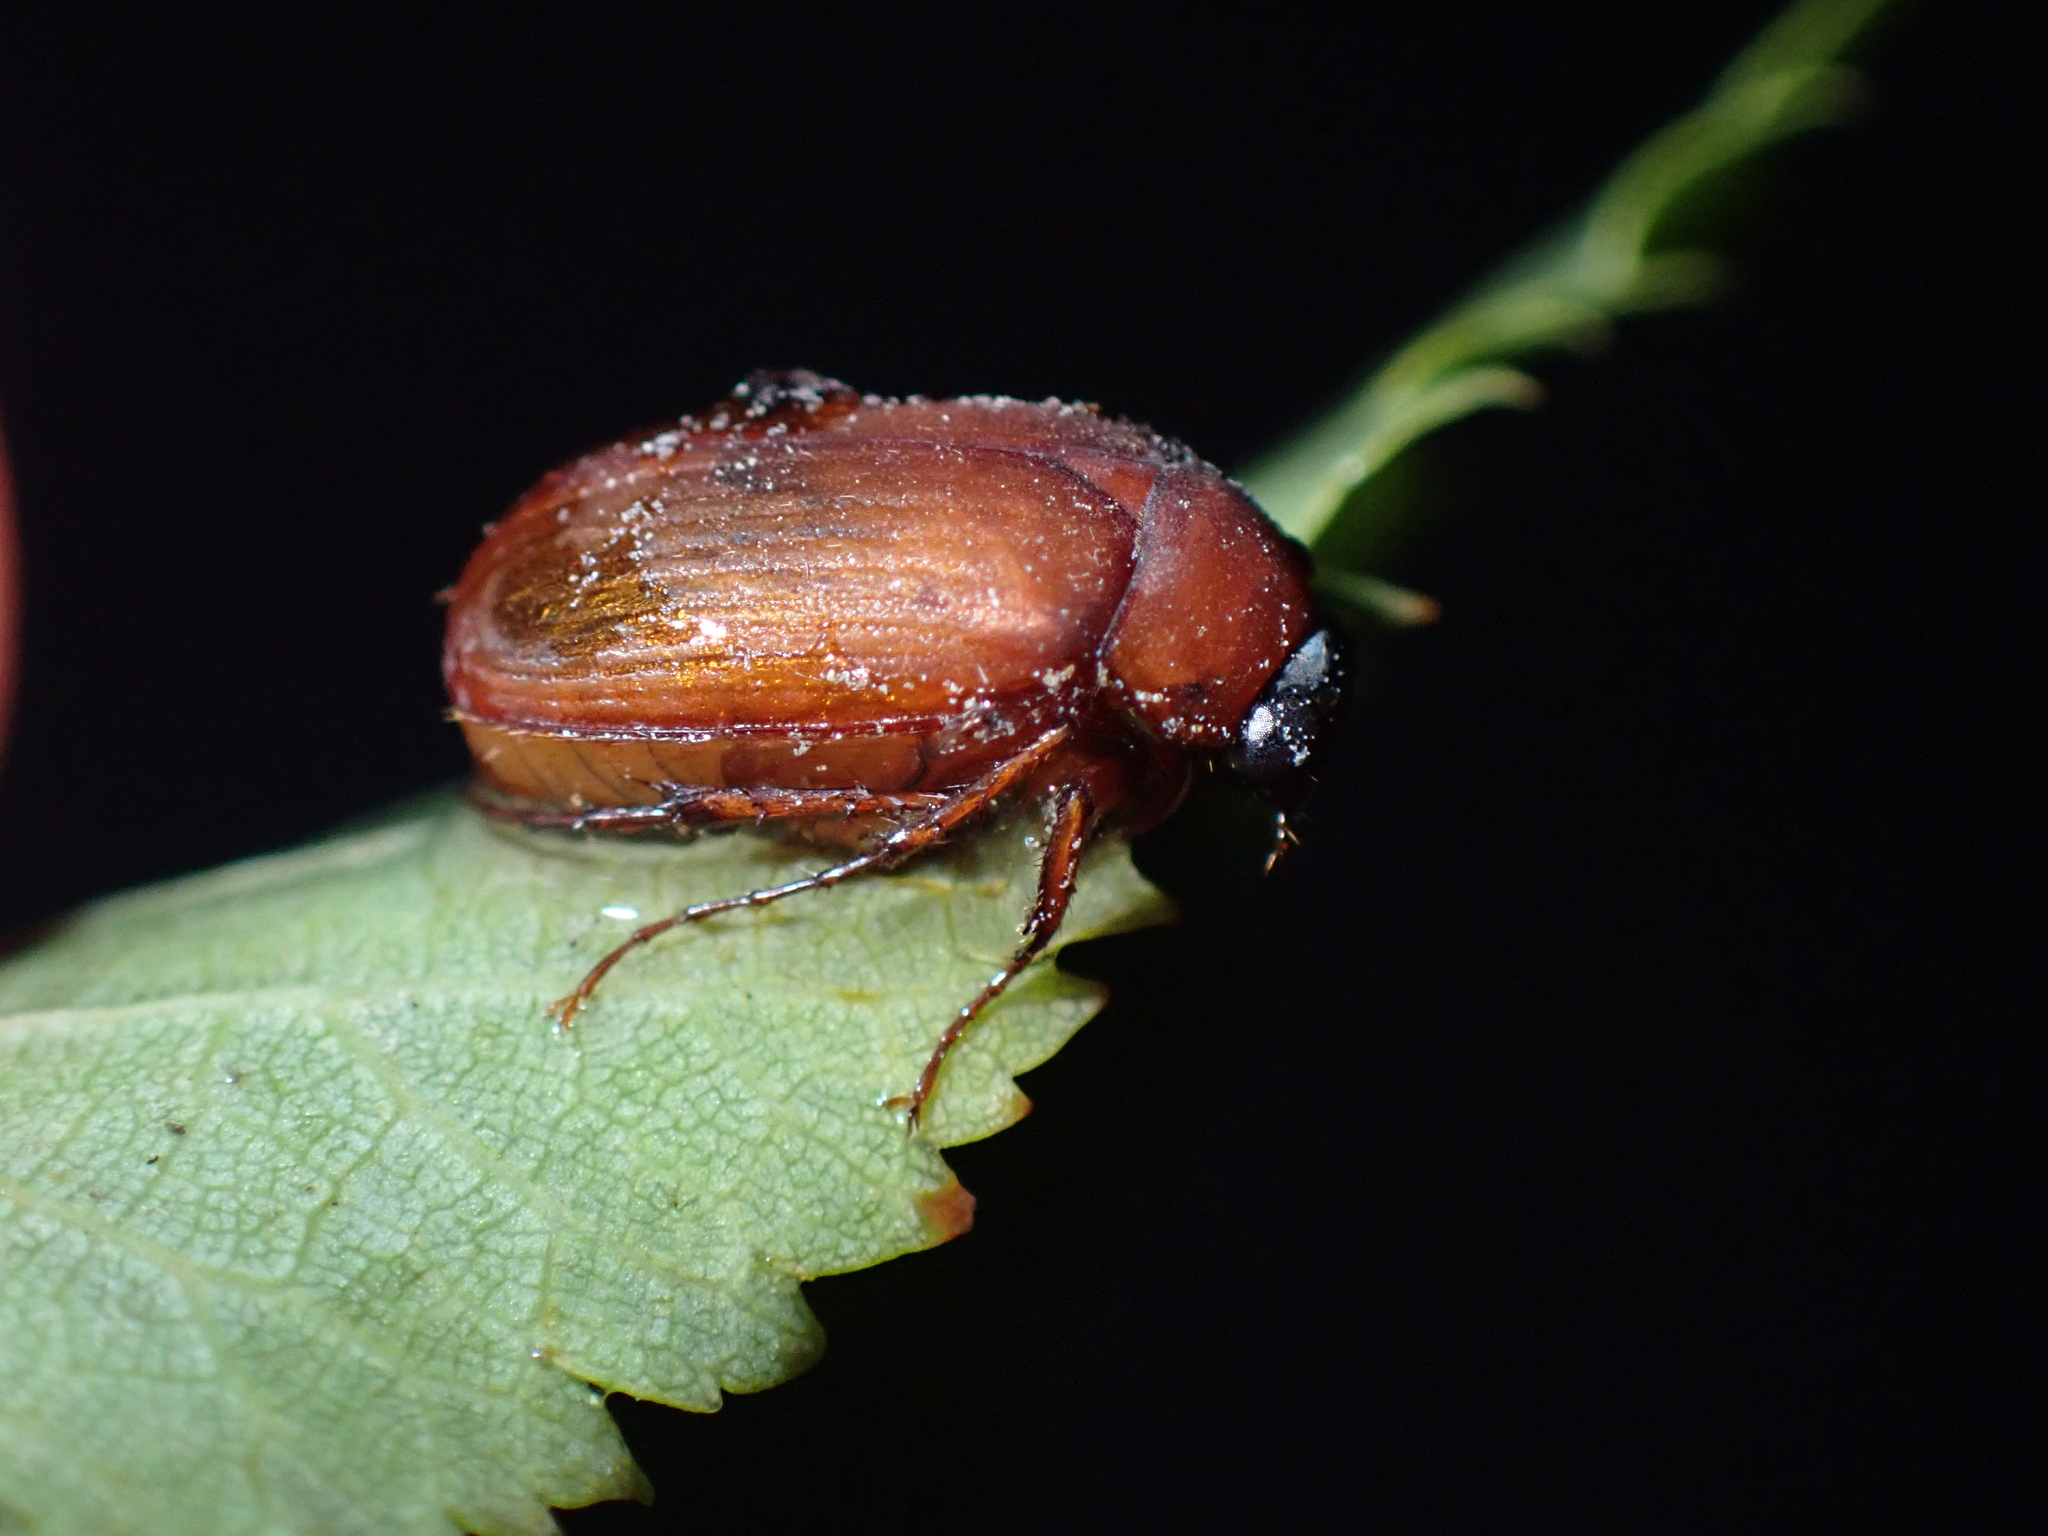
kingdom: Animalia
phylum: Arthropoda
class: Insecta
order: Coleoptera
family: Scarabaeidae
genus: Serica
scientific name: Serica brunnea
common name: Brown chafer
